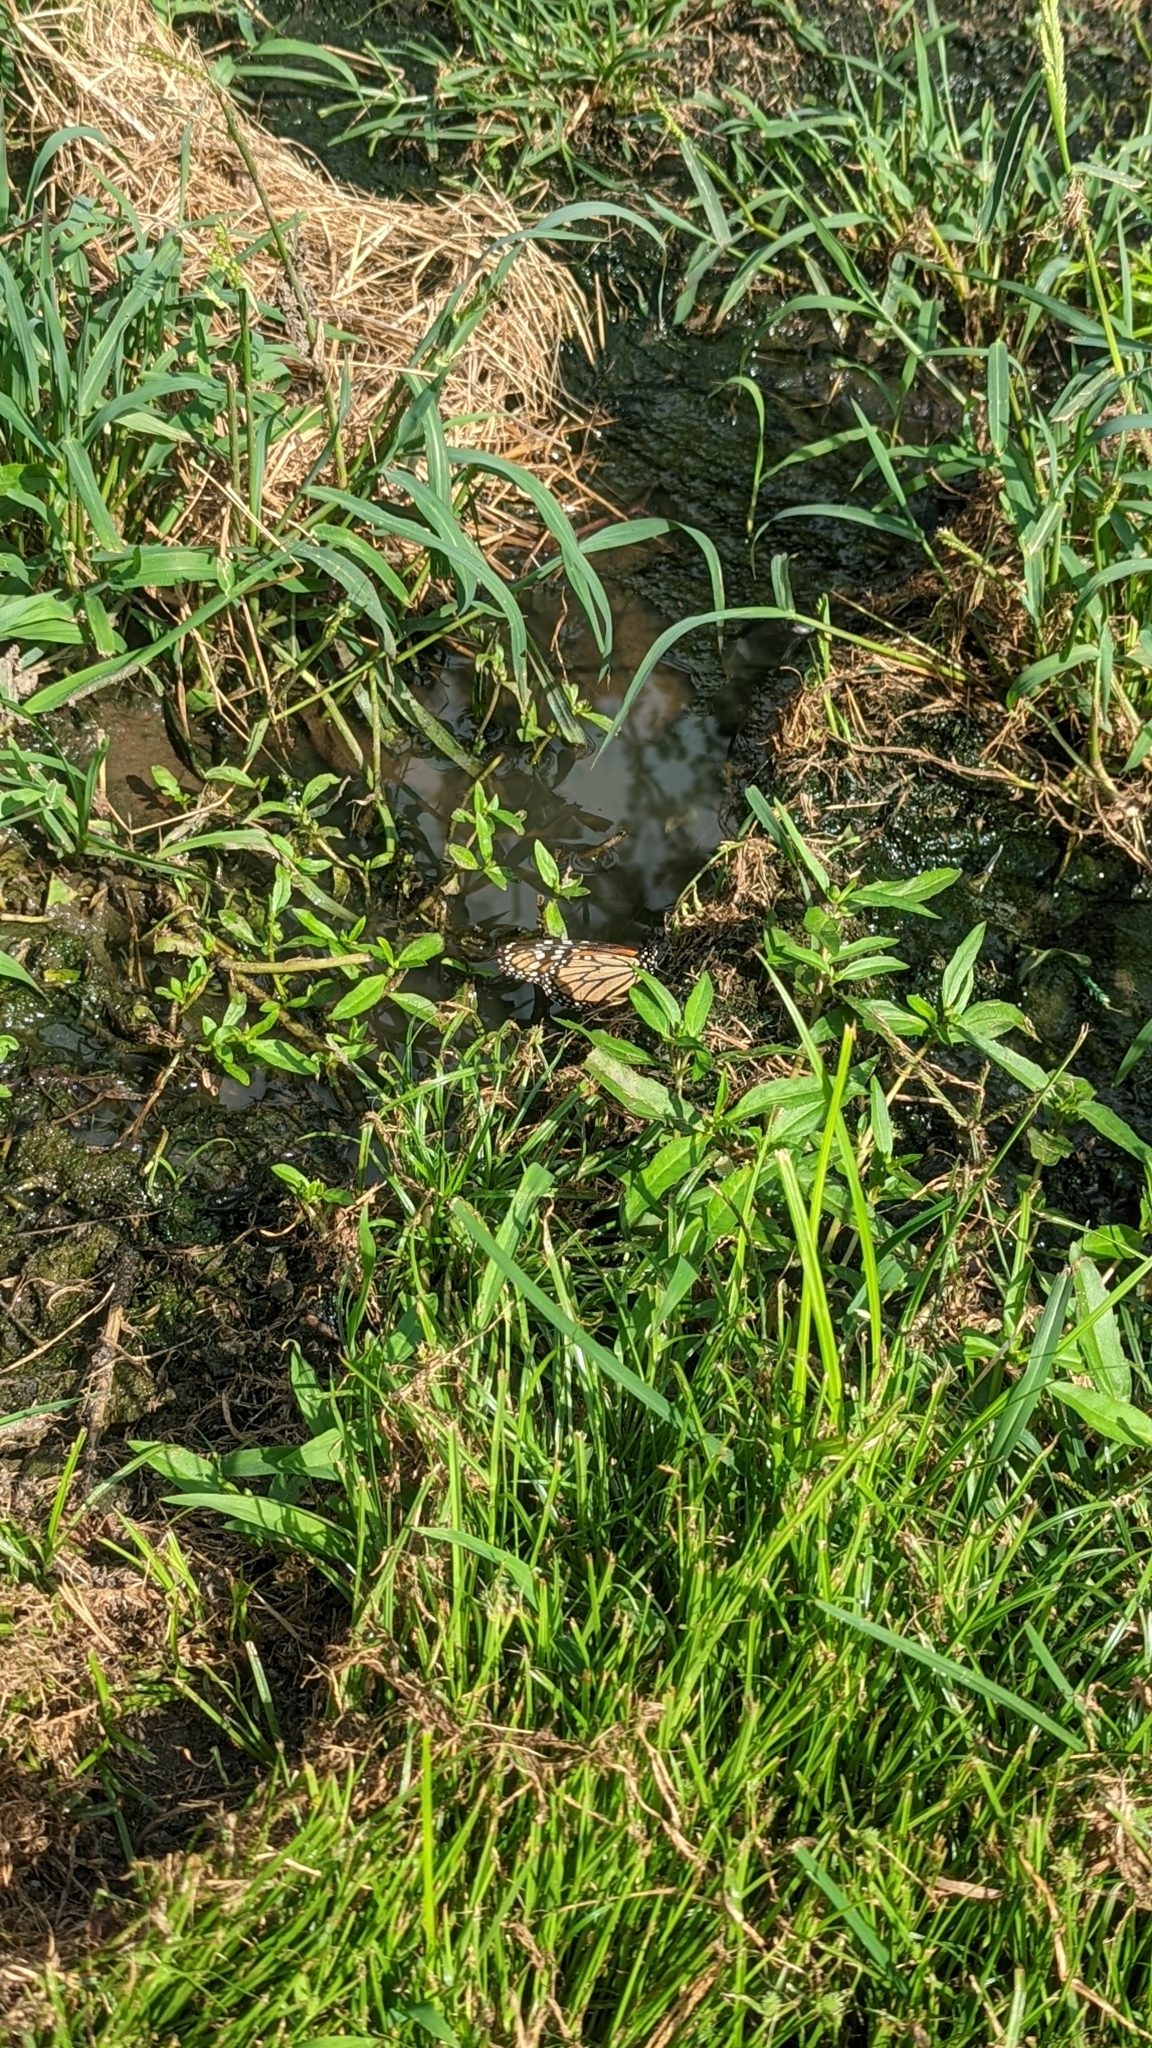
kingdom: Animalia
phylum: Arthropoda
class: Insecta
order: Lepidoptera
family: Nymphalidae
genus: Danaus
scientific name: Danaus plexippus
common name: Monarch
